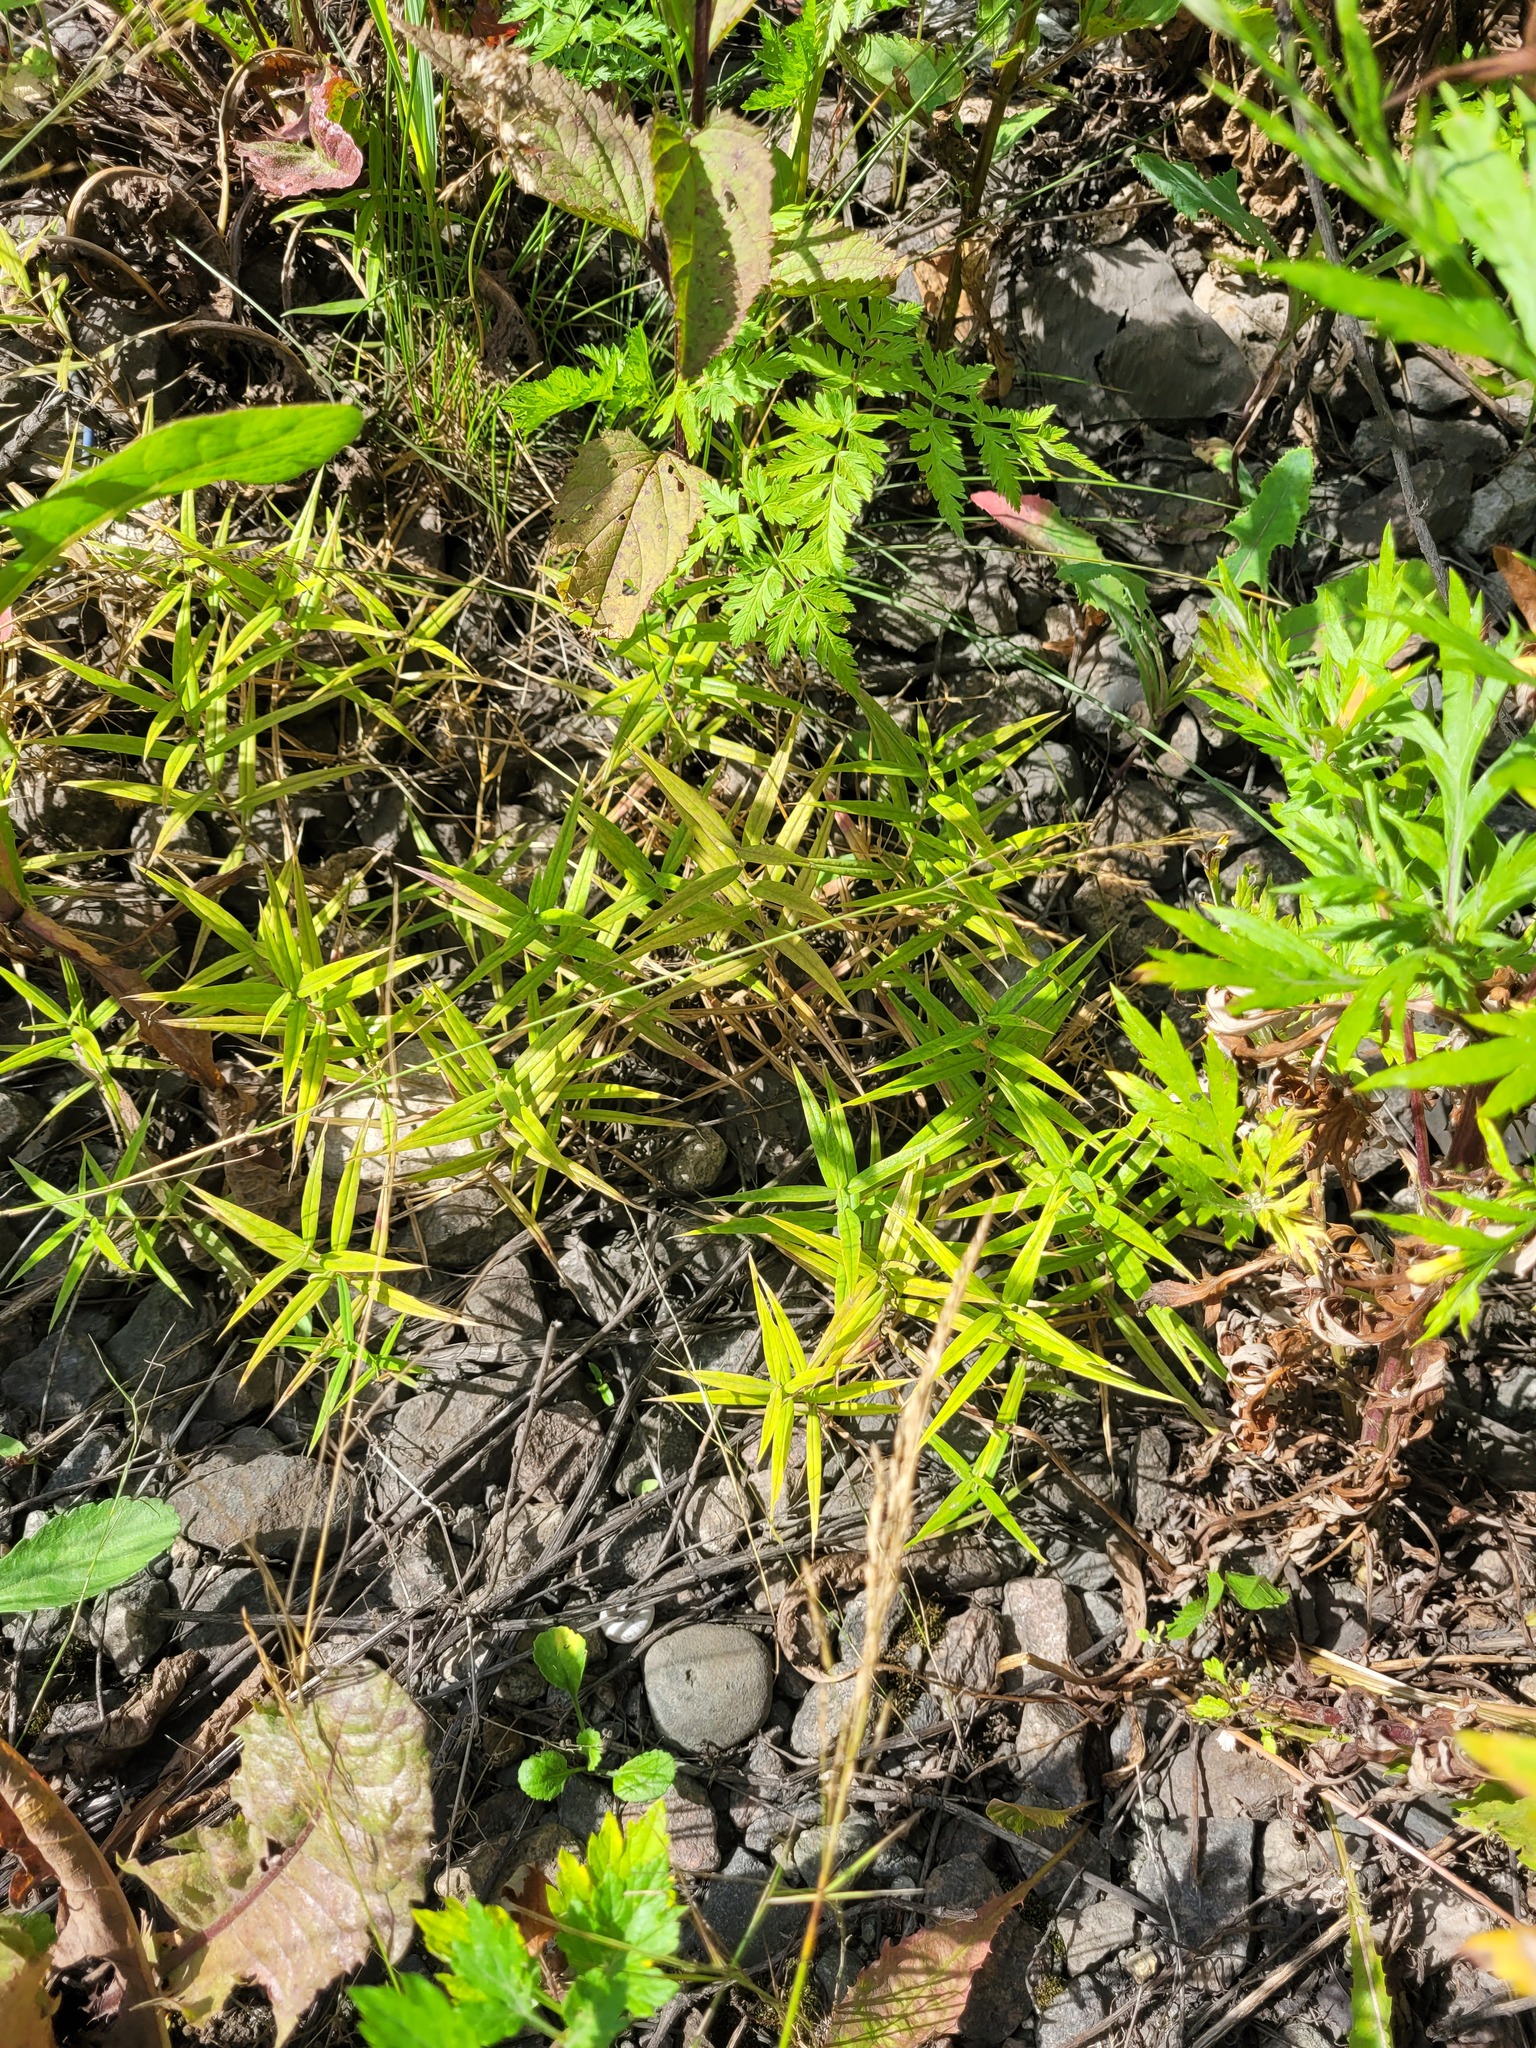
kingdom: Plantae
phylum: Tracheophyta
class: Magnoliopsida
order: Caryophyllales
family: Caryophyllaceae
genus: Rabelera
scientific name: Rabelera holostea
